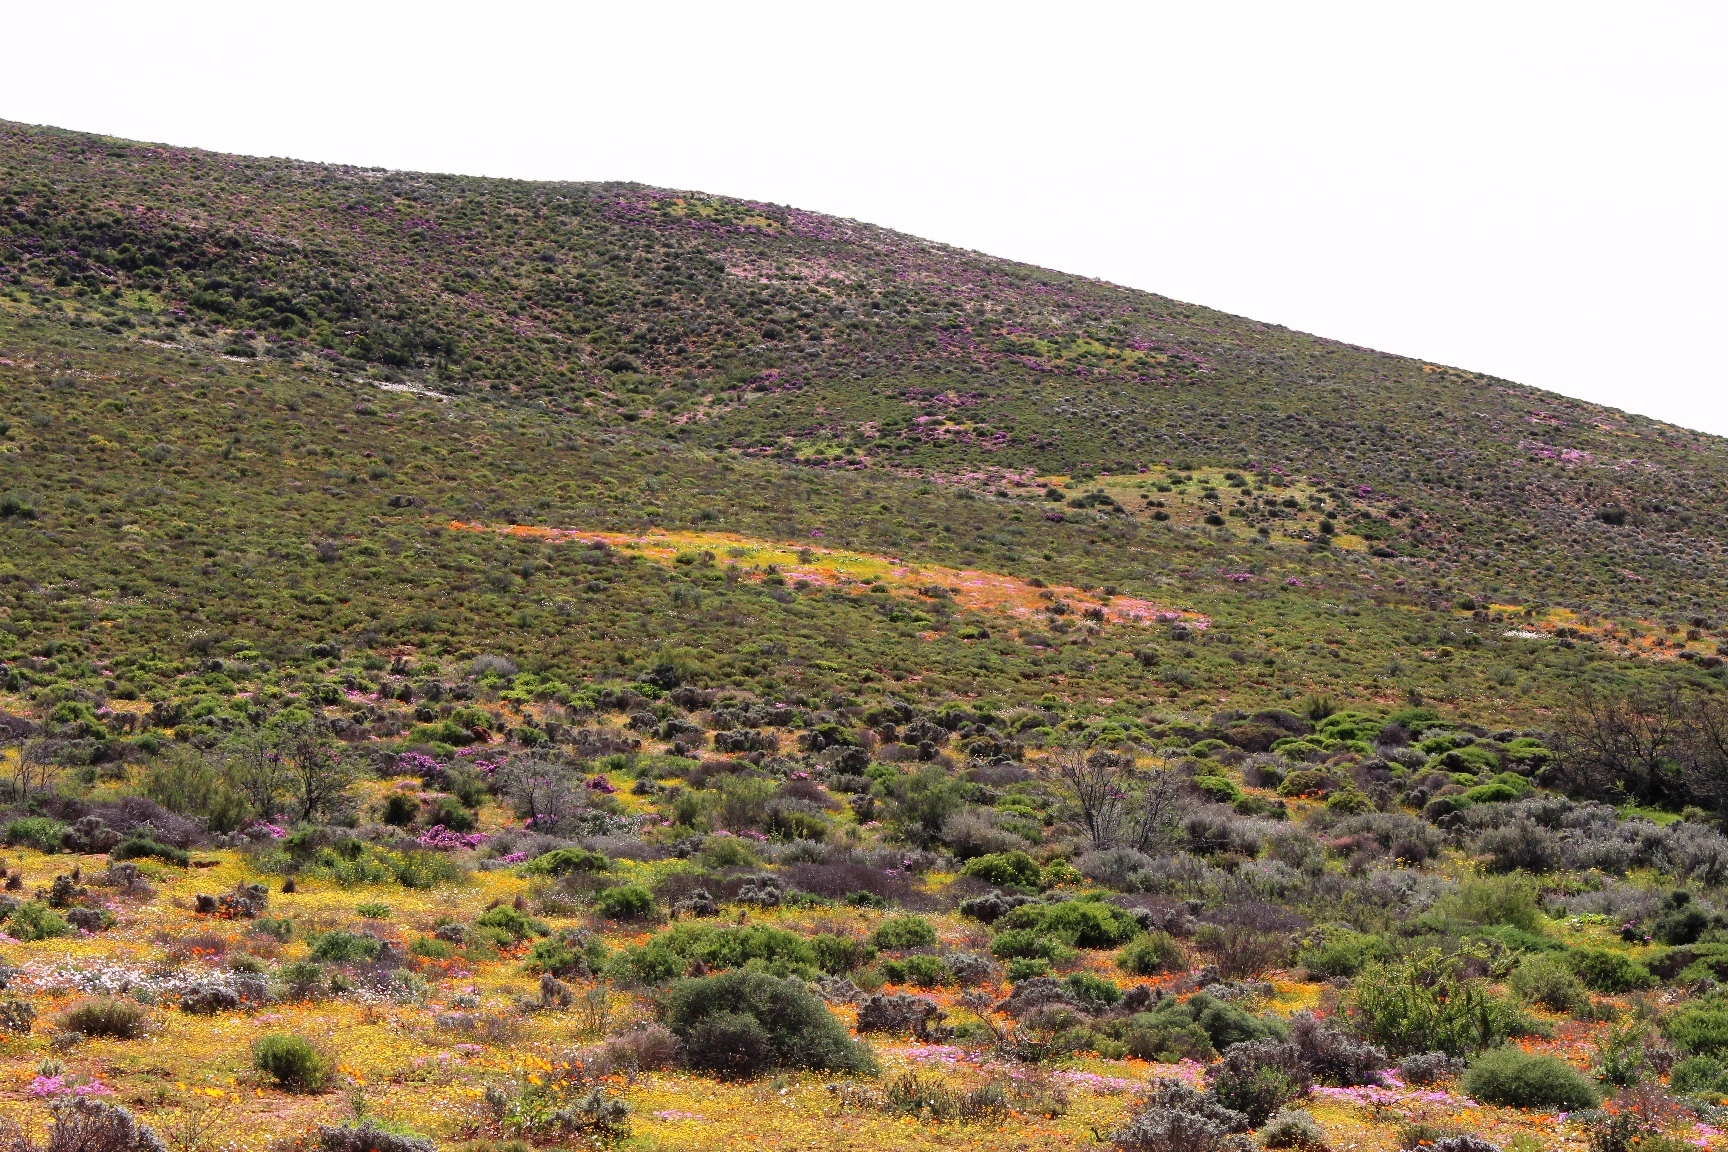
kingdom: Animalia
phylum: Arthropoda
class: Insecta
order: Blattodea
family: Hodotermitidae
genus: Microhodotermes
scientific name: Microhodotermes viator
